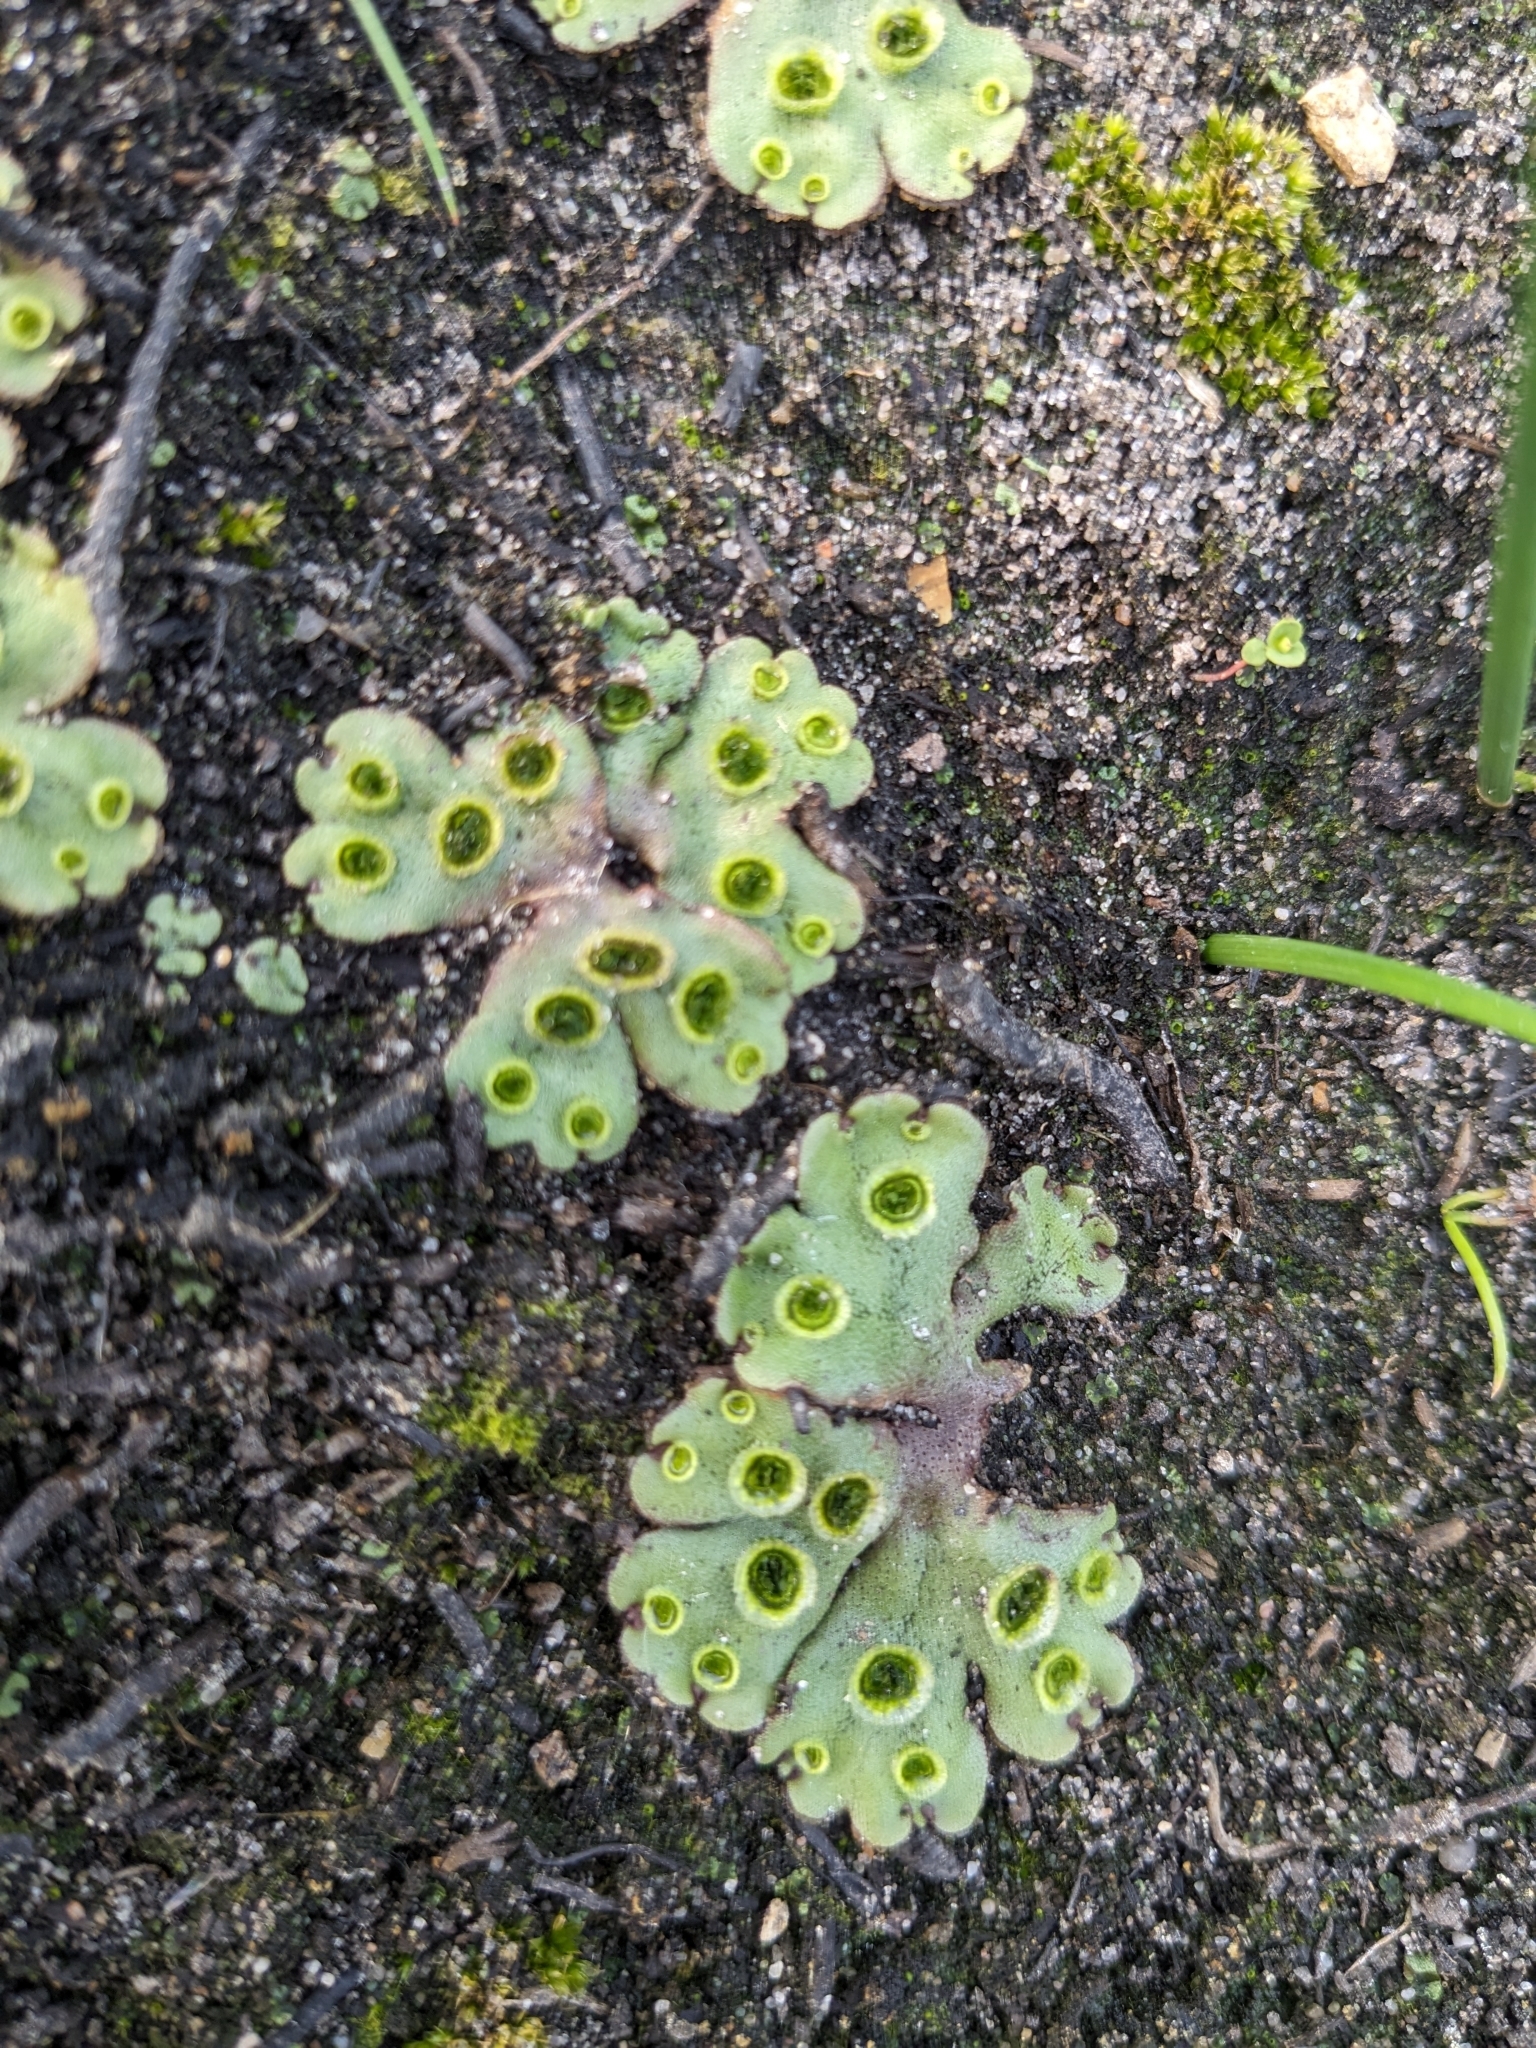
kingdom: Plantae
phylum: Marchantiophyta
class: Marchantiopsida
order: Marchantiales
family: Marchantiaceae
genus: Marchantia
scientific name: Marchantia polymorpha
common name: Common liverwort
